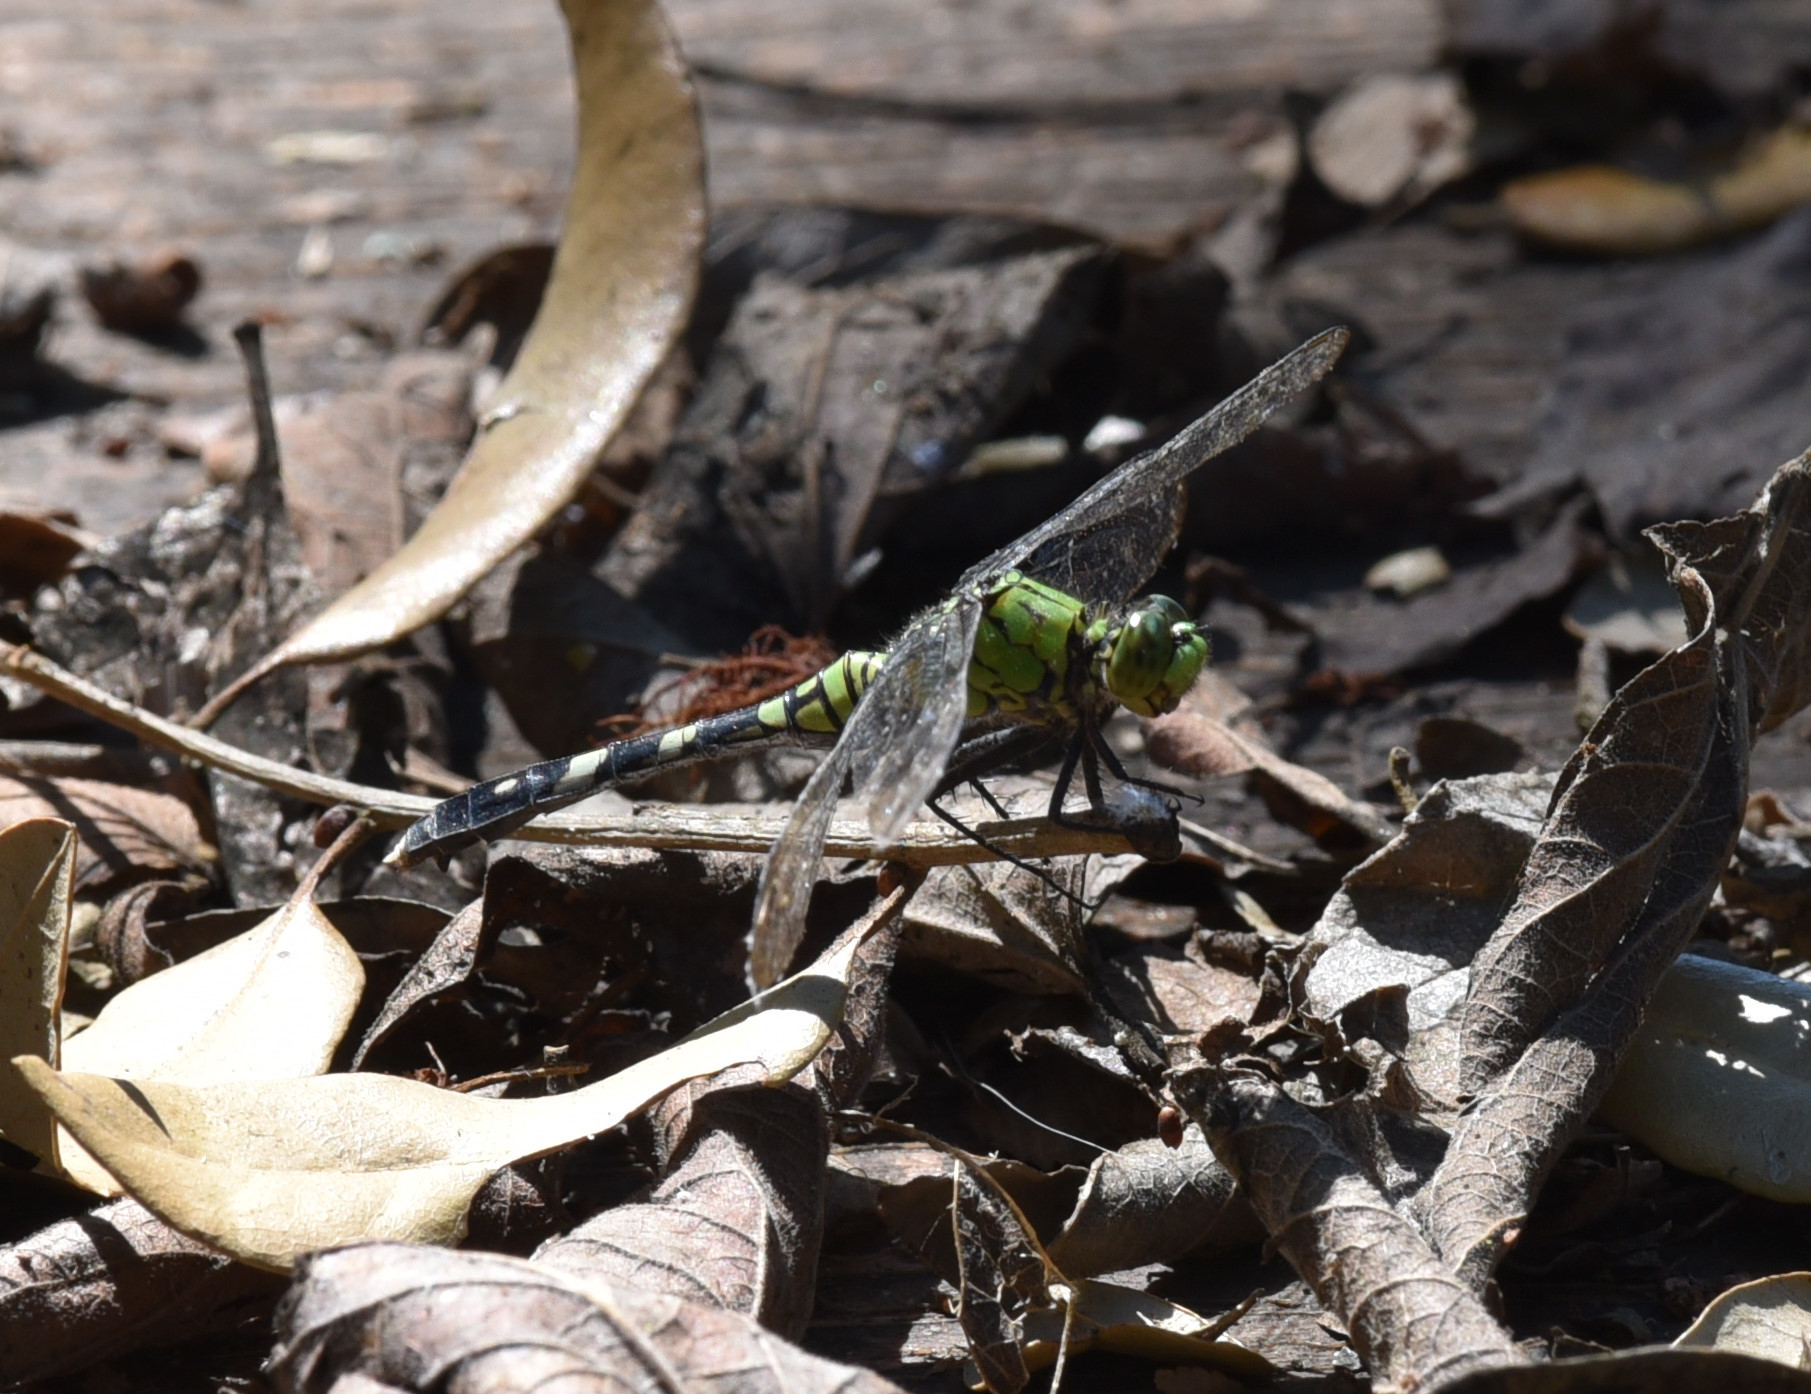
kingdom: Animalia
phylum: Arthropoda
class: Insecta
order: Odonata
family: Libellulidae
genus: Erythemis
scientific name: Erythemis simplicicollis
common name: Eastern pondhawk
